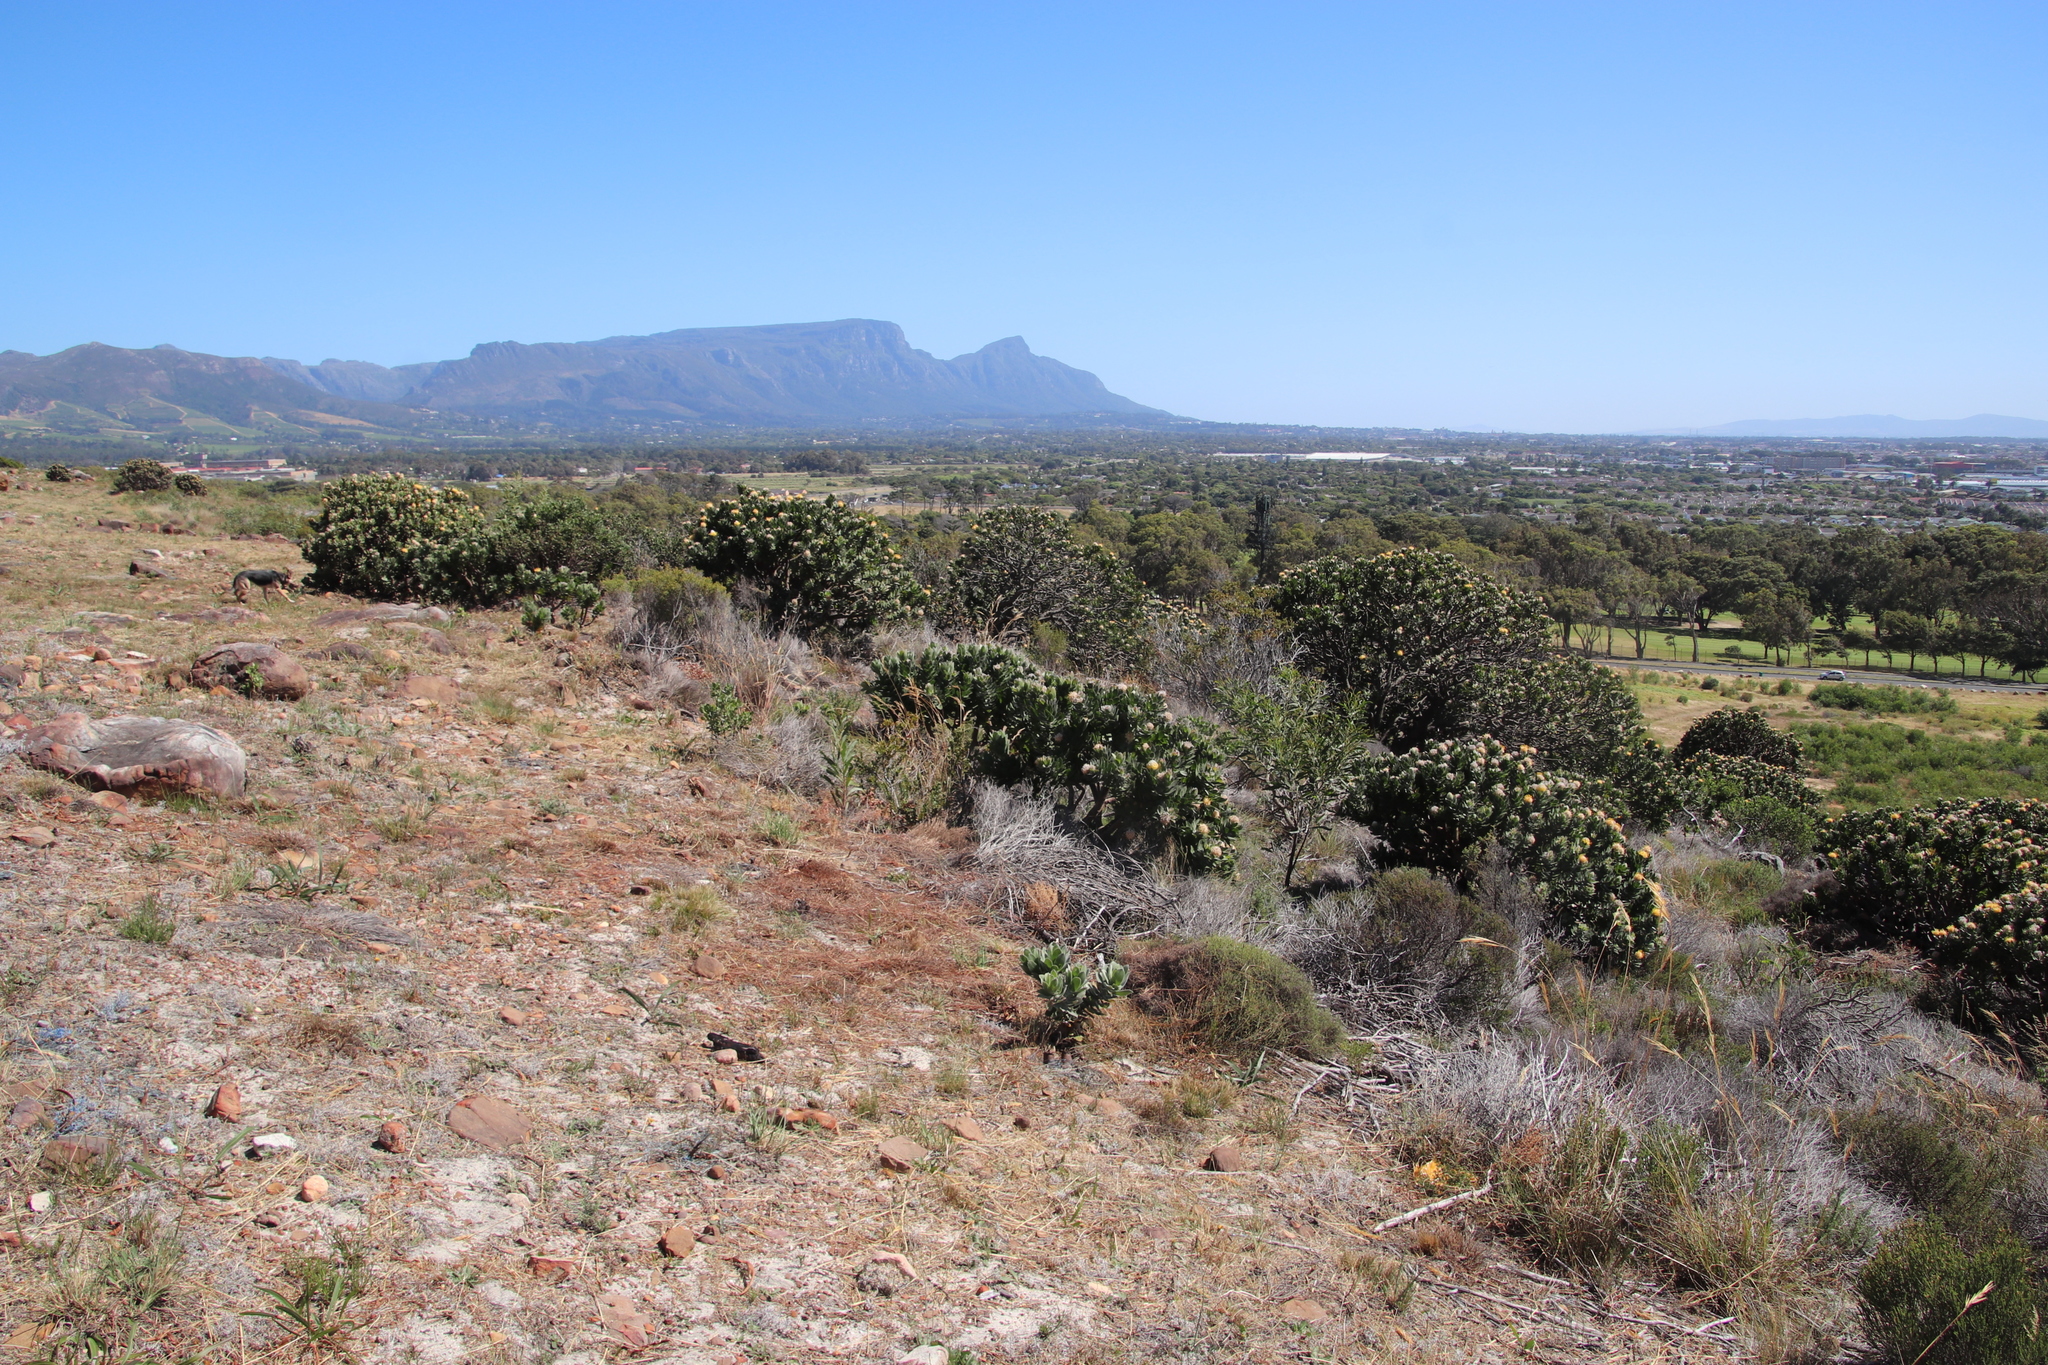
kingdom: Plantae
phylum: Tracheophyta
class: Magnoliopsida
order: Proteales
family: Proteaceae
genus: Leucospermum
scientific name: Leucospermum conocarpodendron
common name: Tree pincushion
